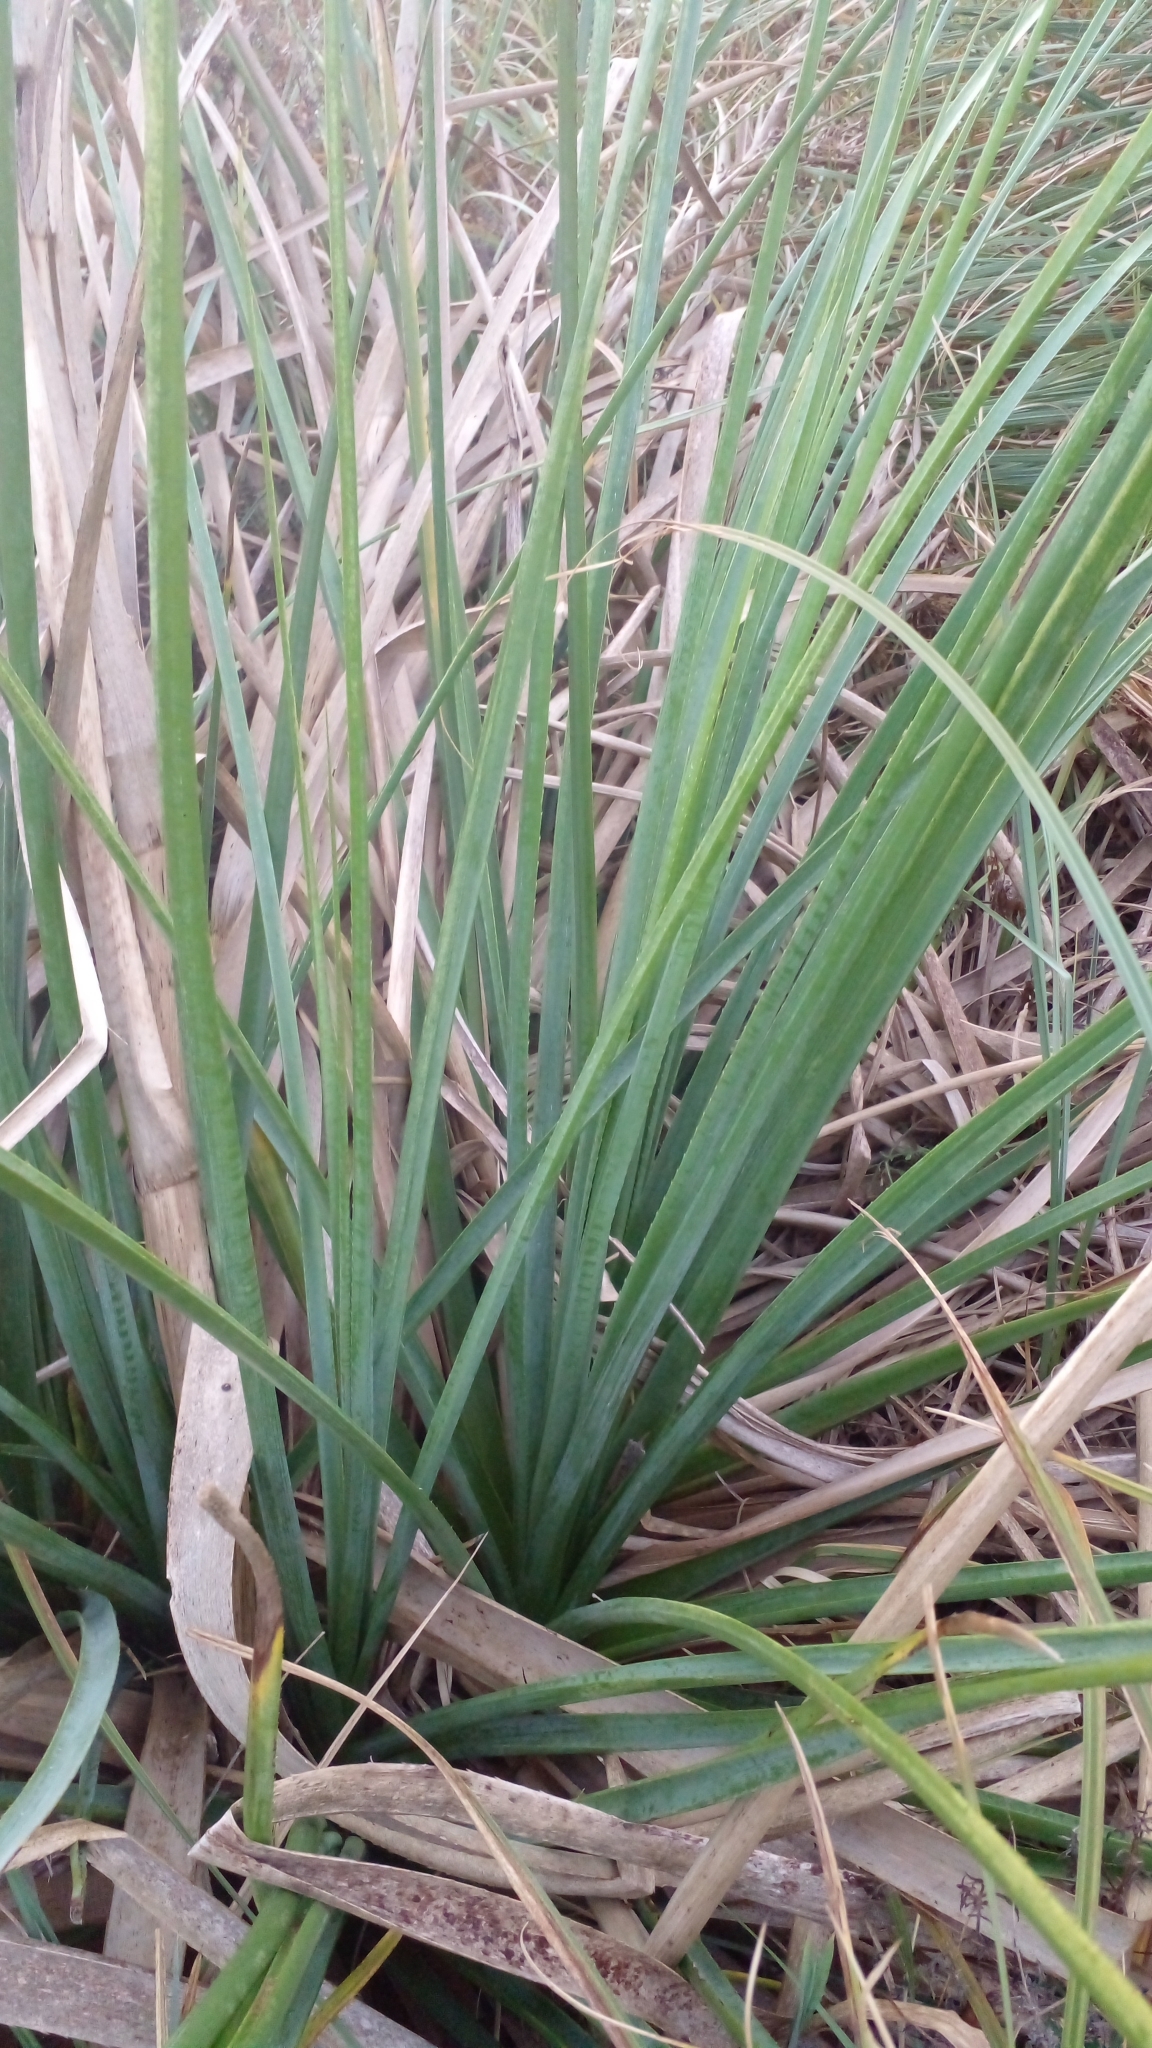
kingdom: Plantae
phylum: Tracheophyta
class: Magnoliopsida
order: Apiales
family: Apiaceae
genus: Eryngium
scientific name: Eryngium pandanifolium
